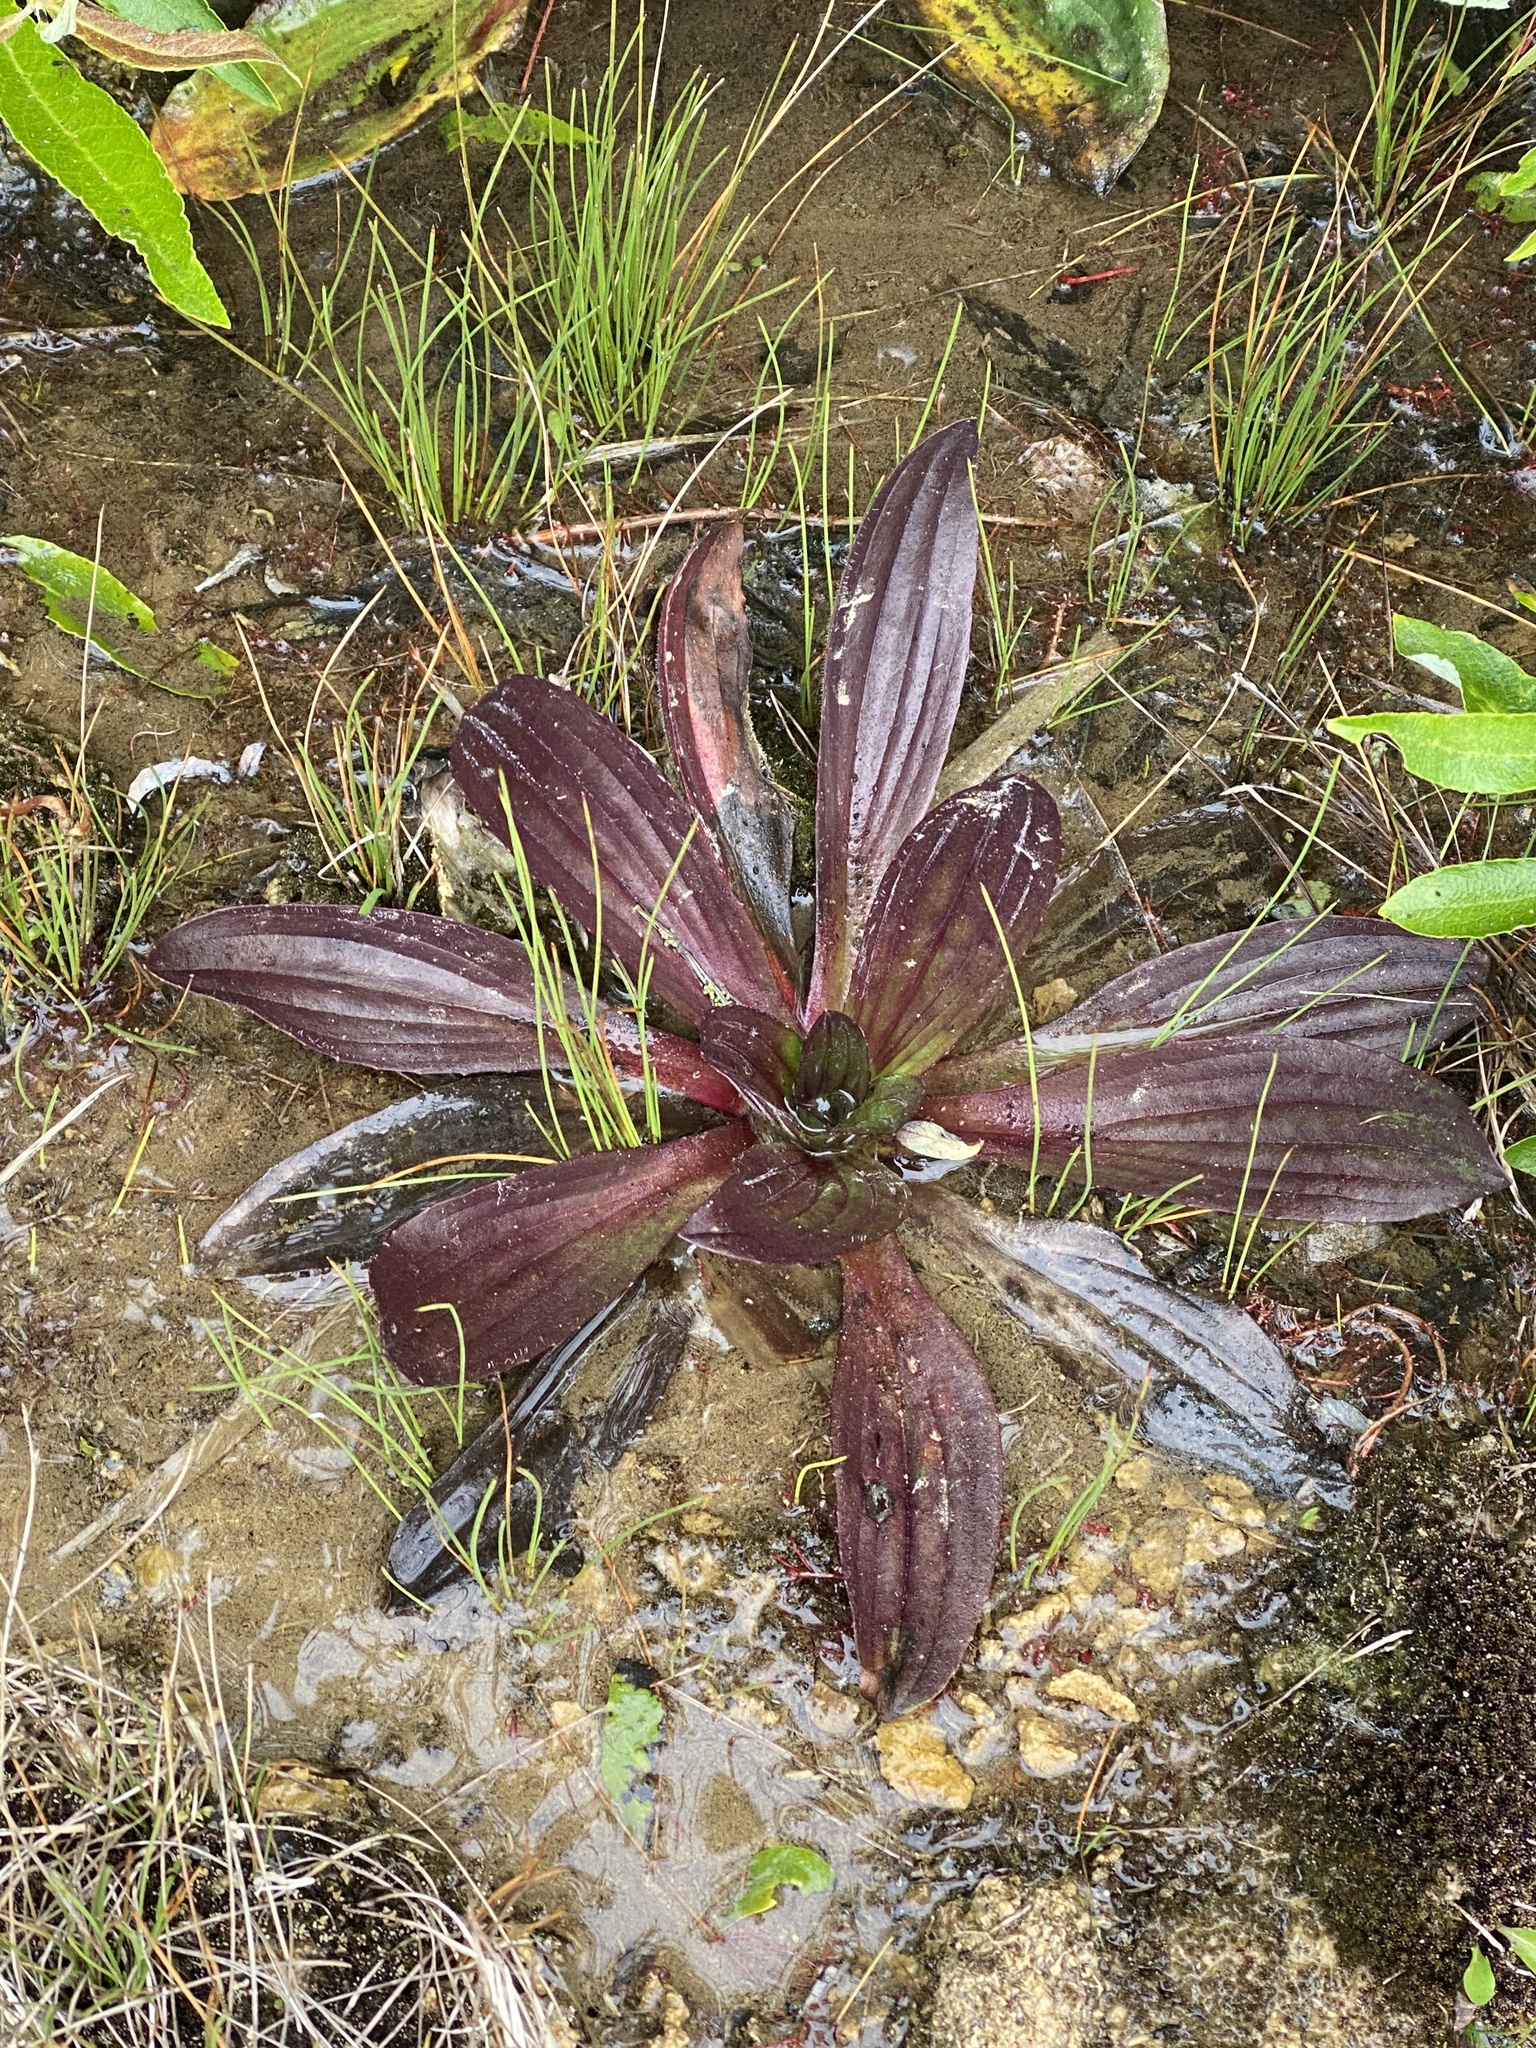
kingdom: Plantae
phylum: Tracheophyta
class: Magnoliopsida
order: Lamiales
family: Plantaginaceae
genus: Plantago
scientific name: Plantago subnuda
